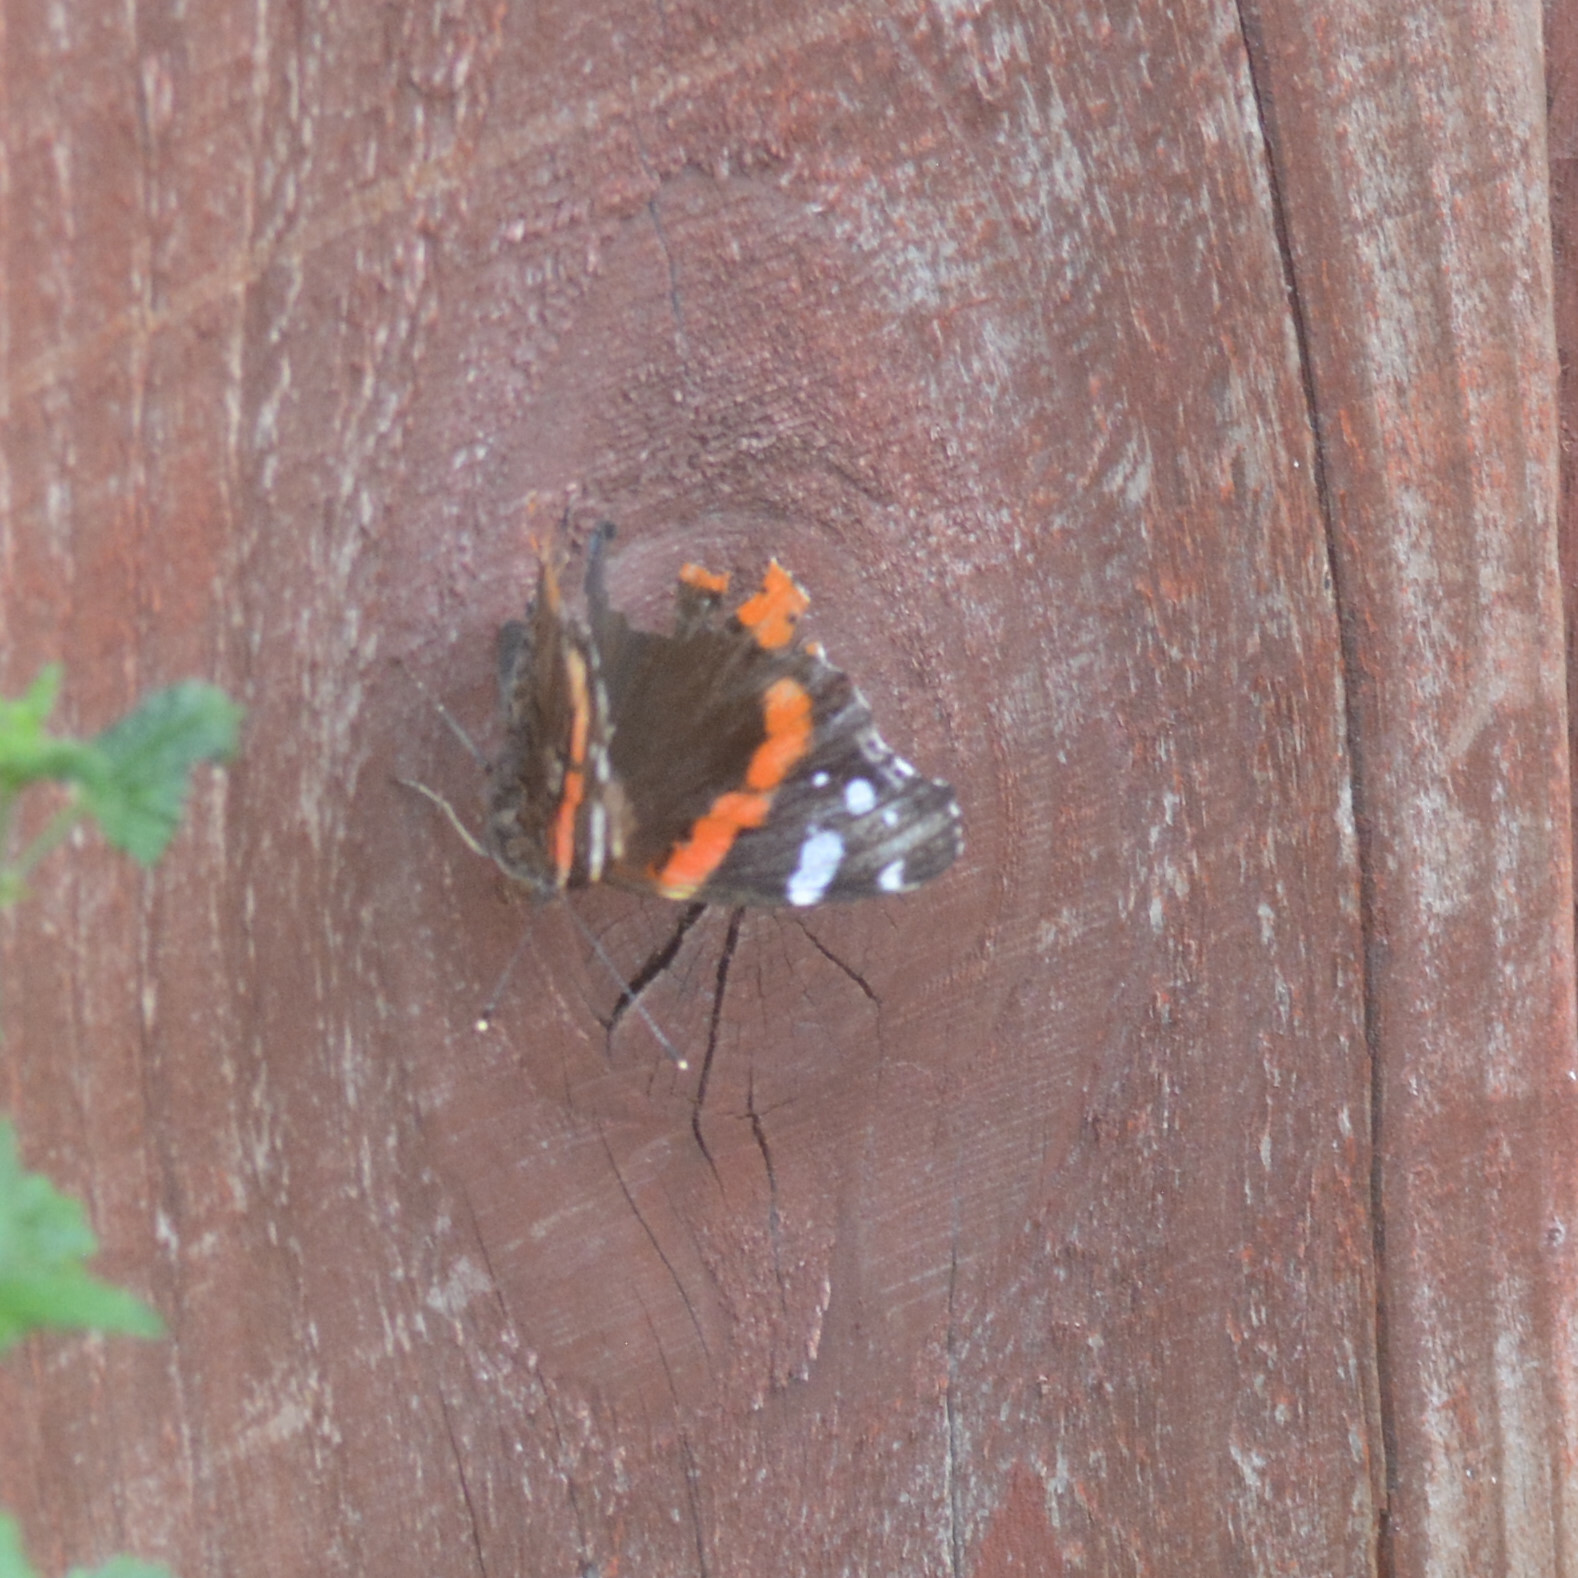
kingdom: Animalia
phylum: Arthropoda
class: Insecta
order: Lepidoptera
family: Nymphalidae
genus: Vanessa
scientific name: Vanessa atalanta
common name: Red admiral
